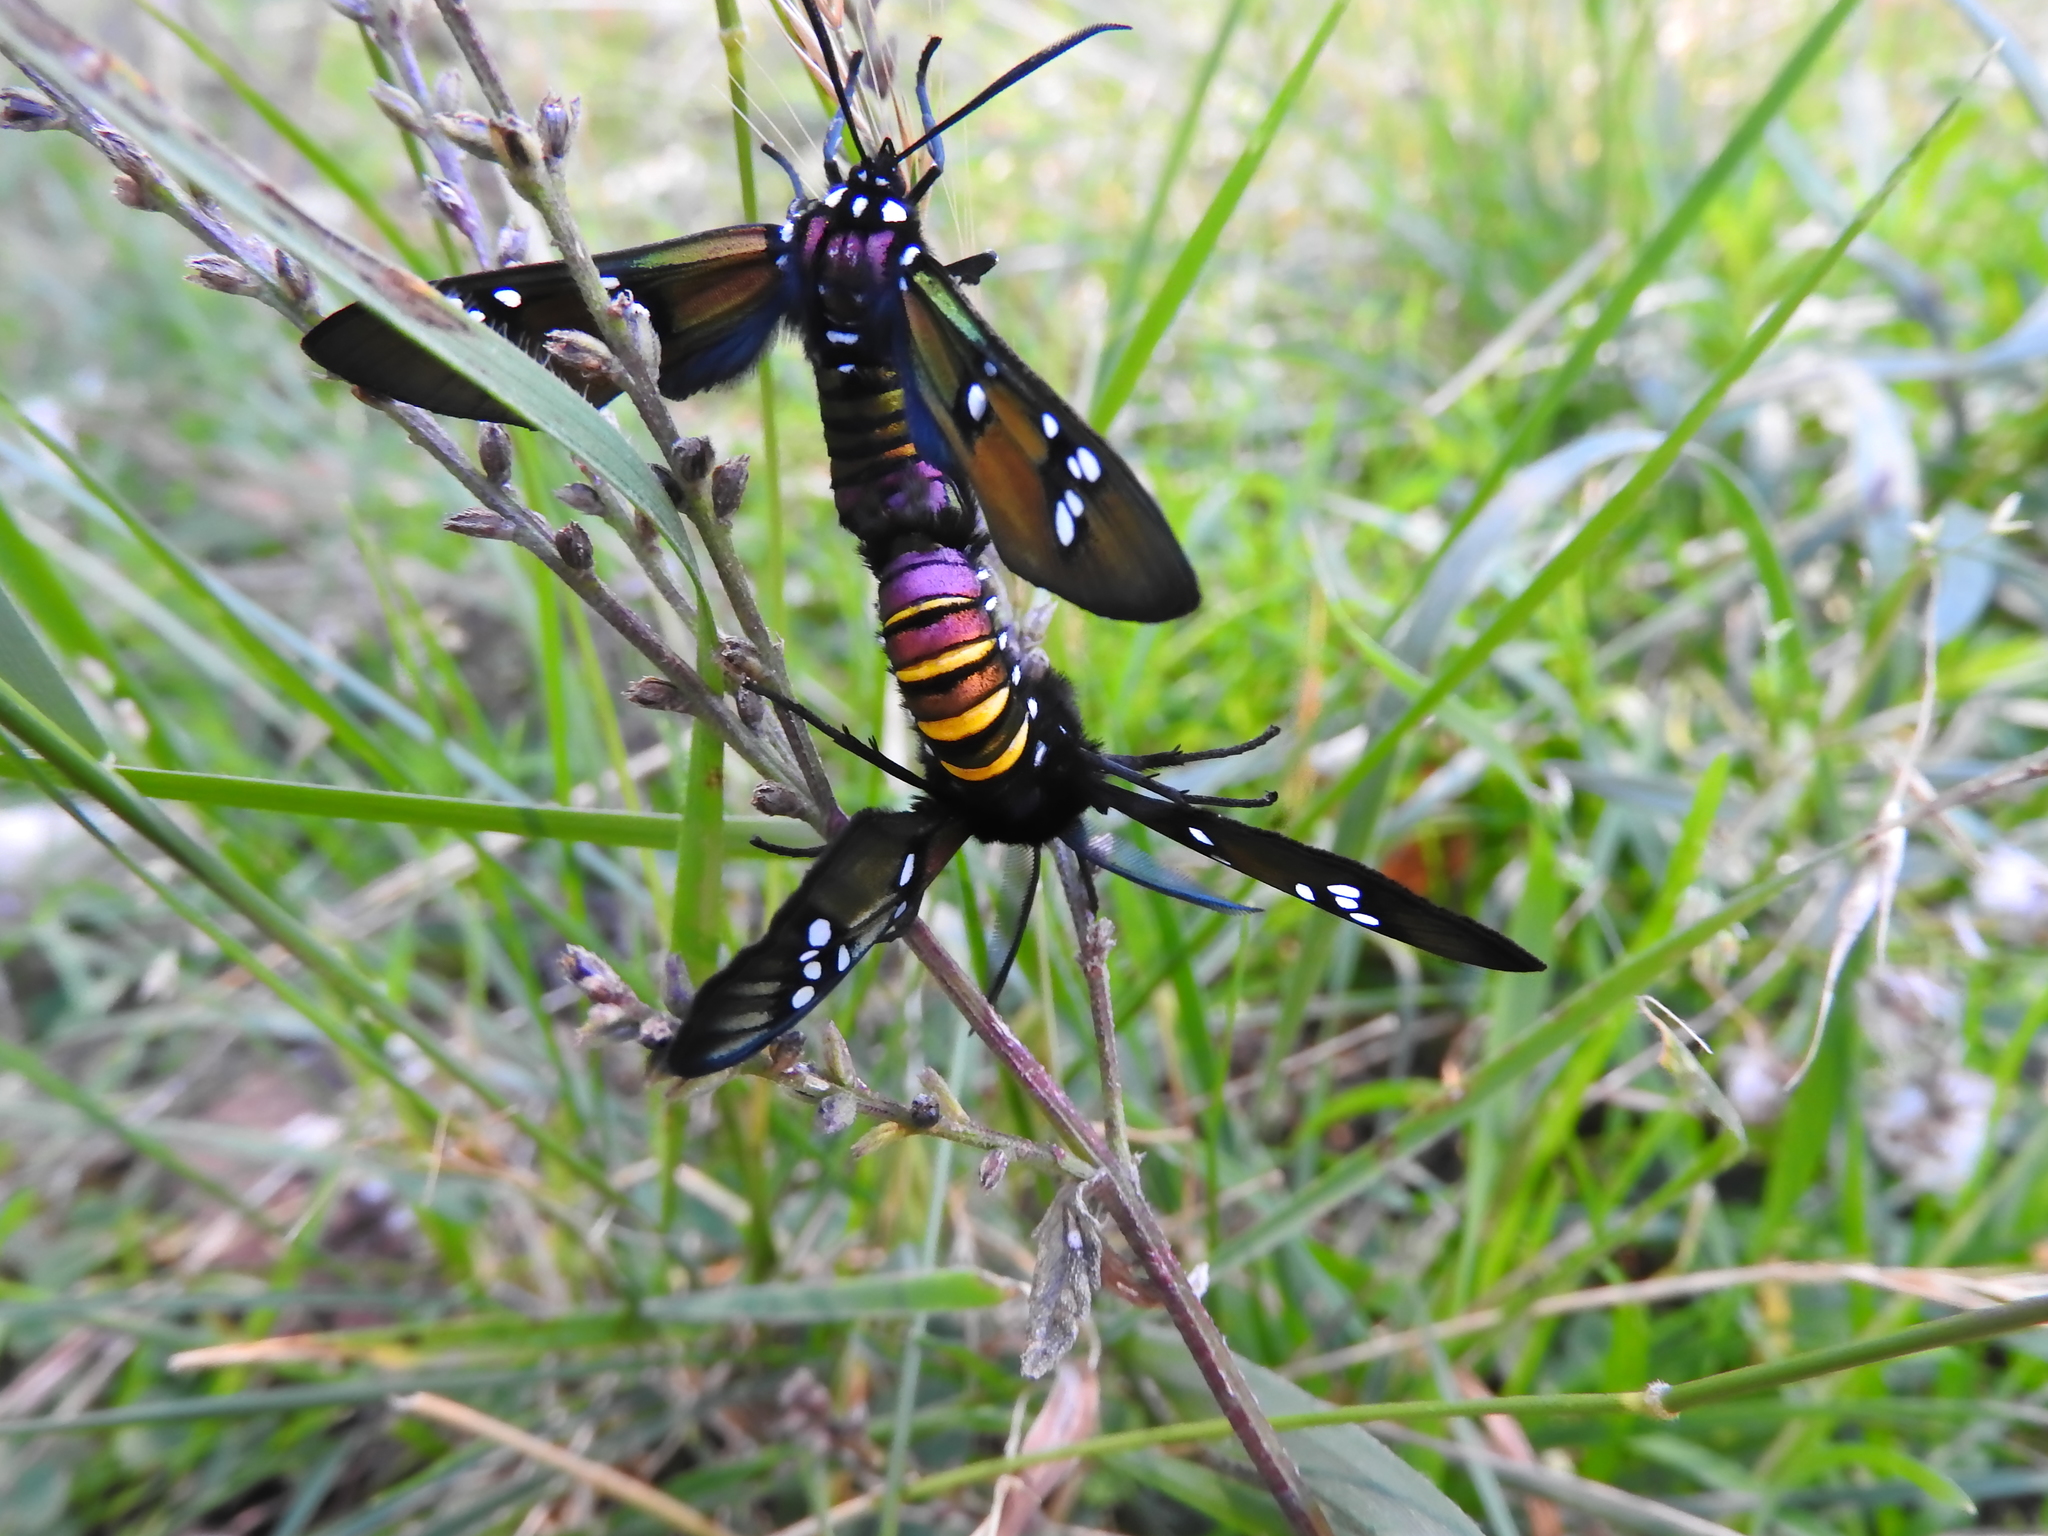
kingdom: Animalia
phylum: Arthropoda
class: Insecta
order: Lepidoptera
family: Erebidae
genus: Chrysocale
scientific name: Chrysocale principalis
